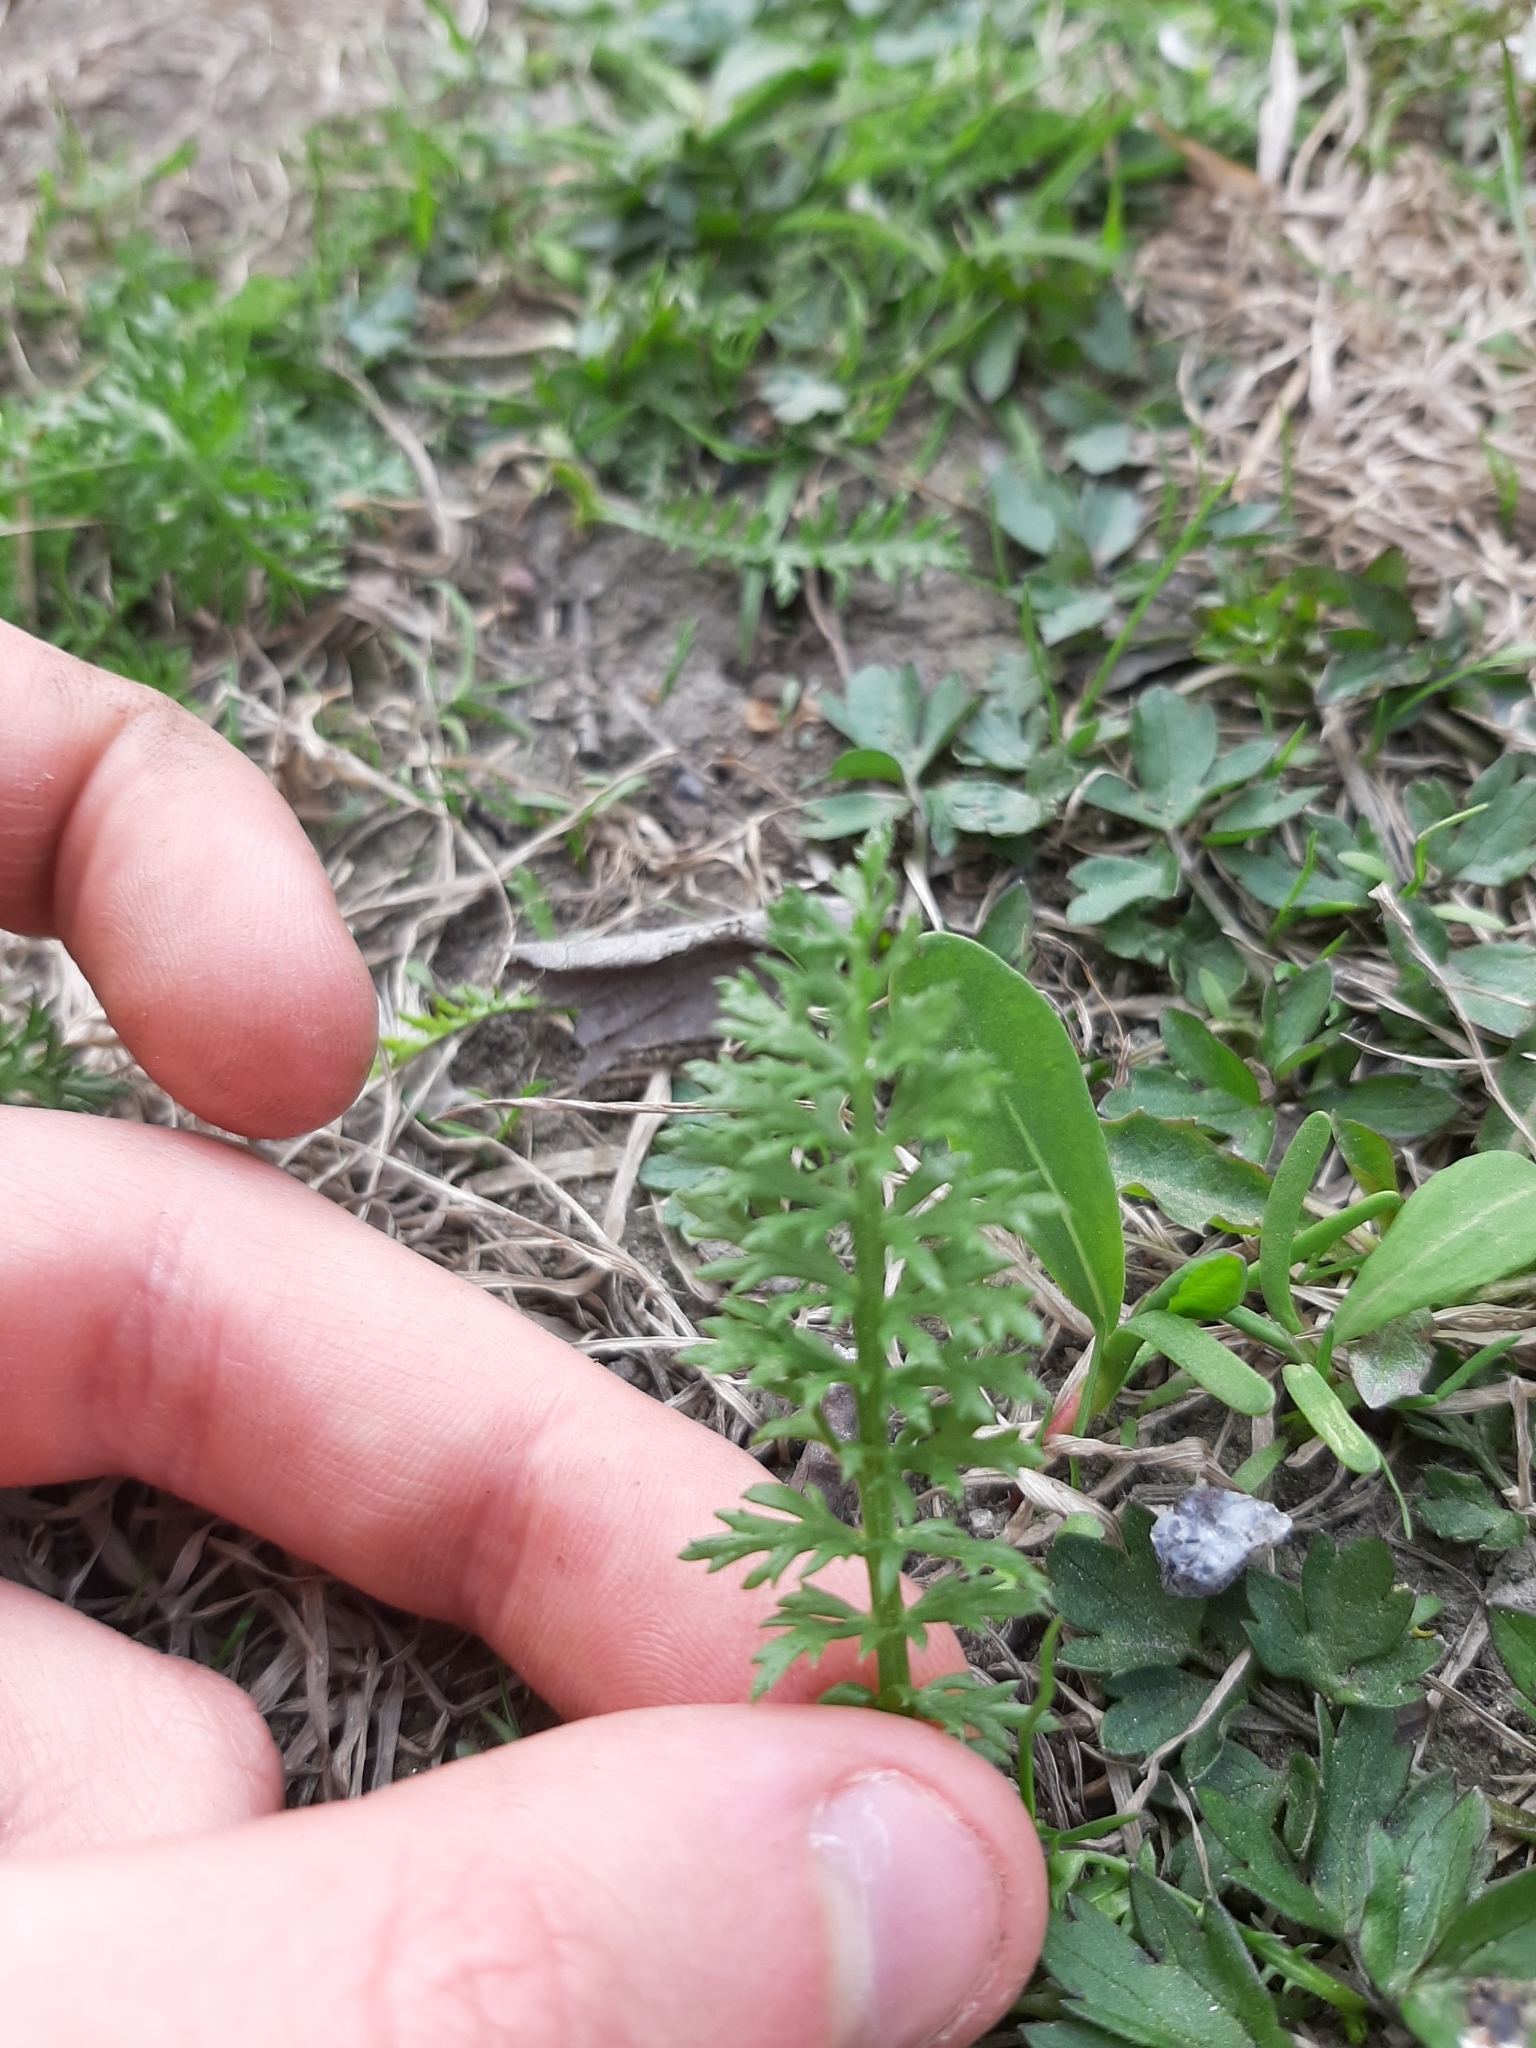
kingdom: Plantae
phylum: Tracheophyta
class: Magnoliopsida
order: Asterales
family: Asteraceae
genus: Achillea
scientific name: Achillea millefolium
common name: Yarrow
